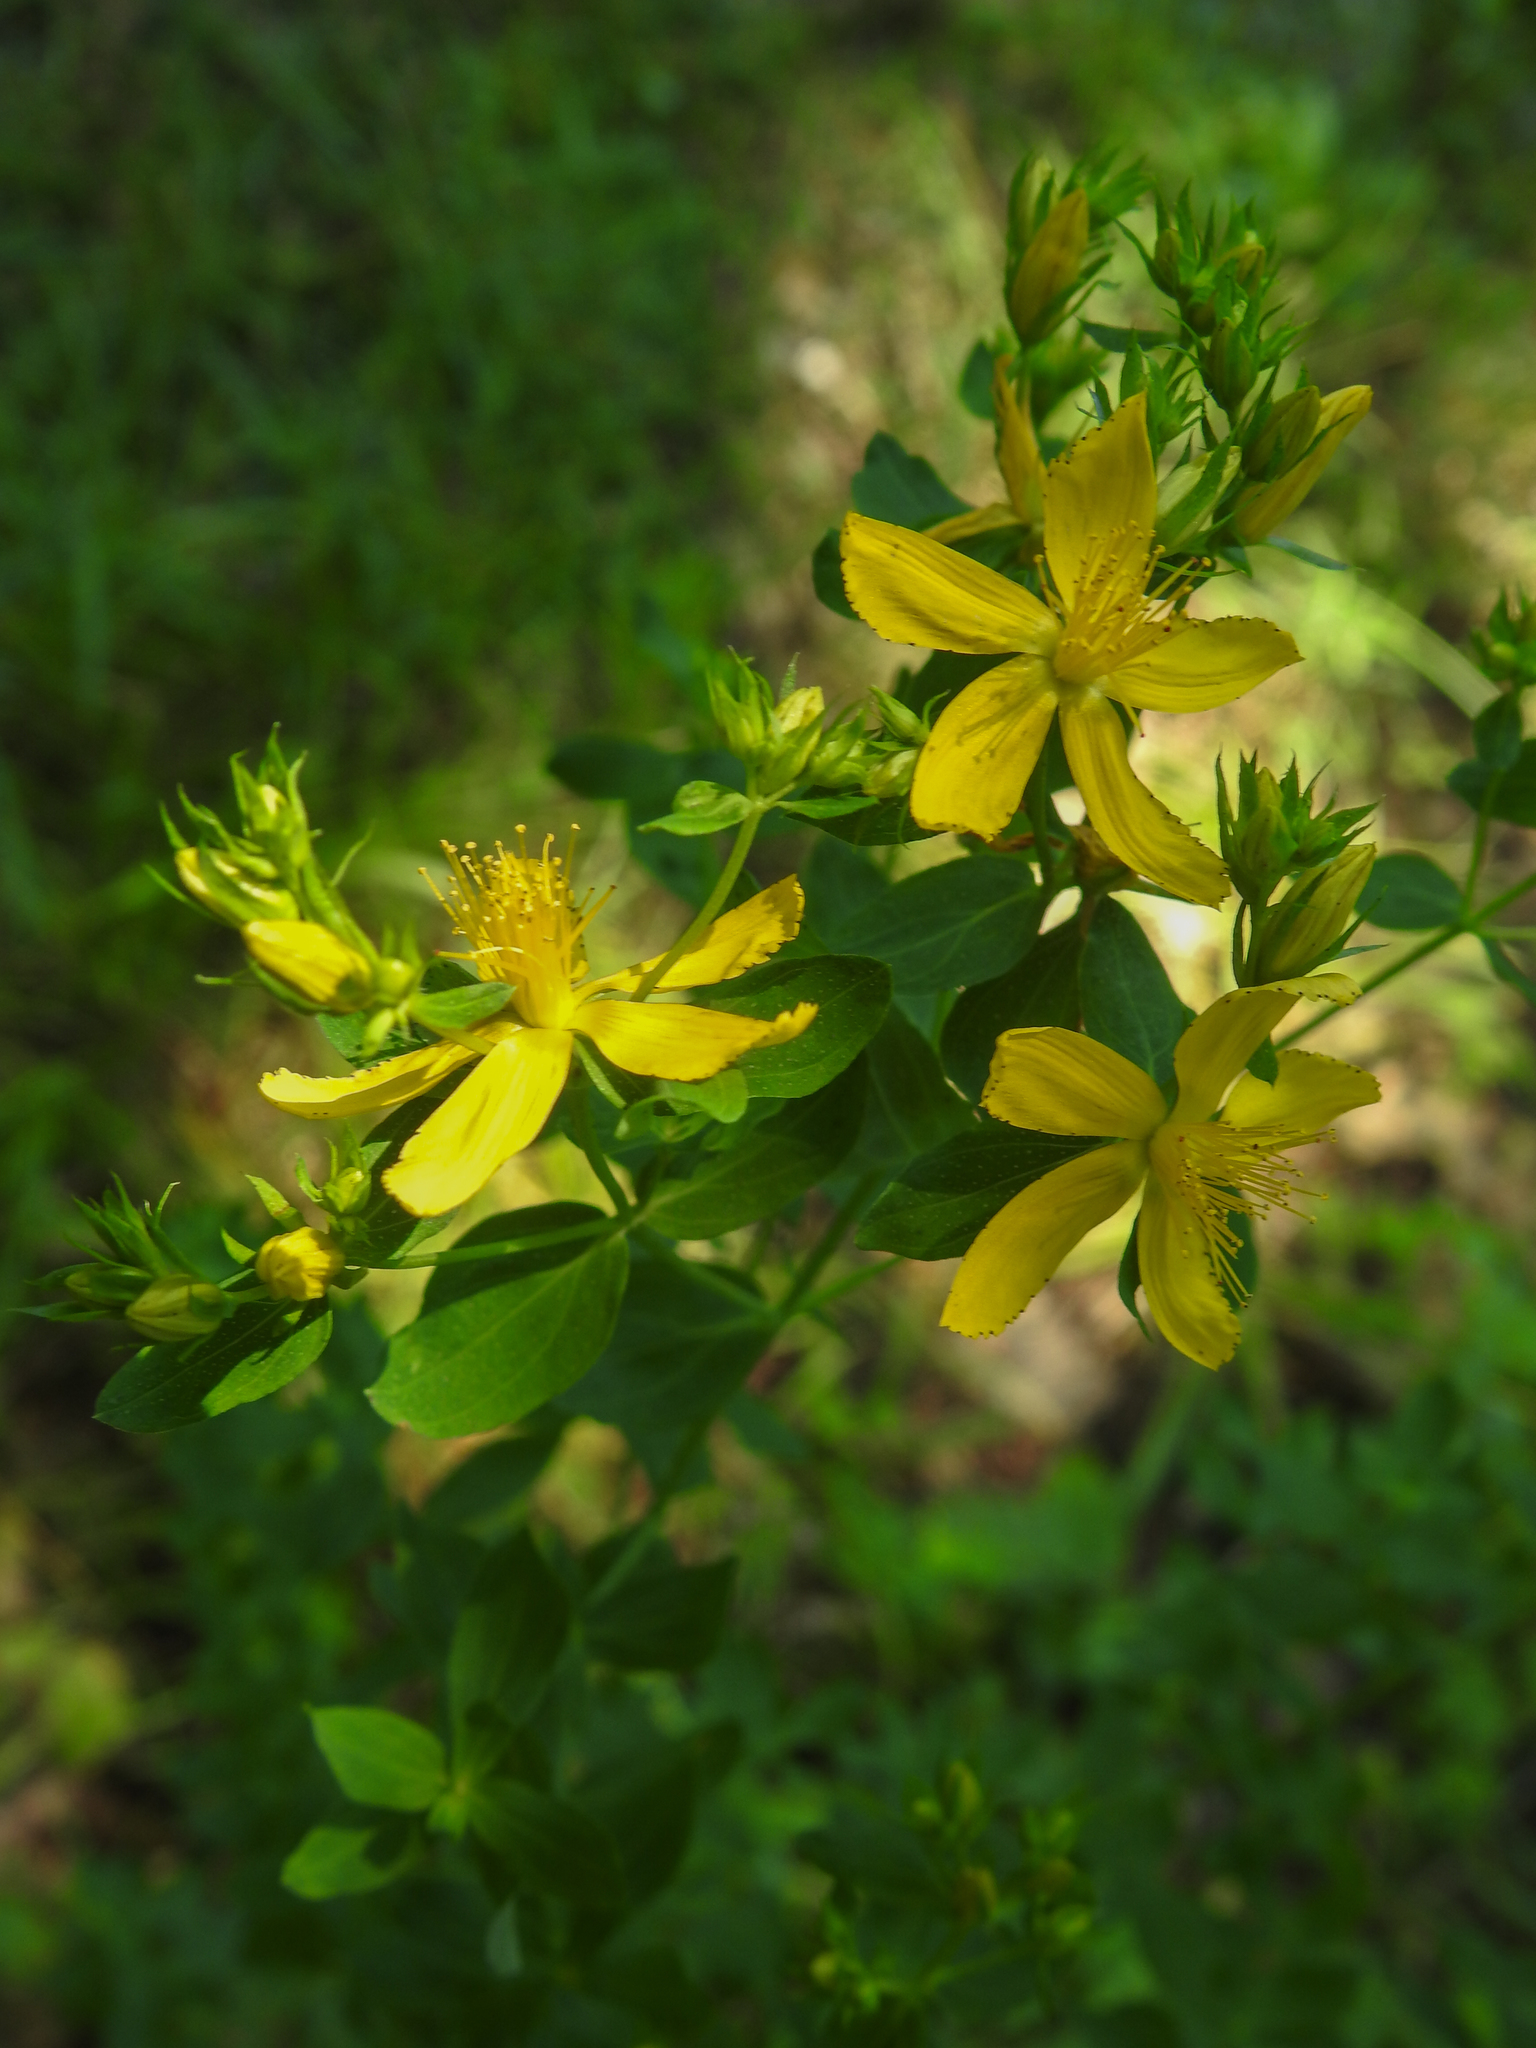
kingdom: Plantae
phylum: Tracheophyta
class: Magnoliopsida
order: Malpighiales
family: Hypericaceae
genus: Hypericum
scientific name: Hypericum perforatum
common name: Common st. johnswort
